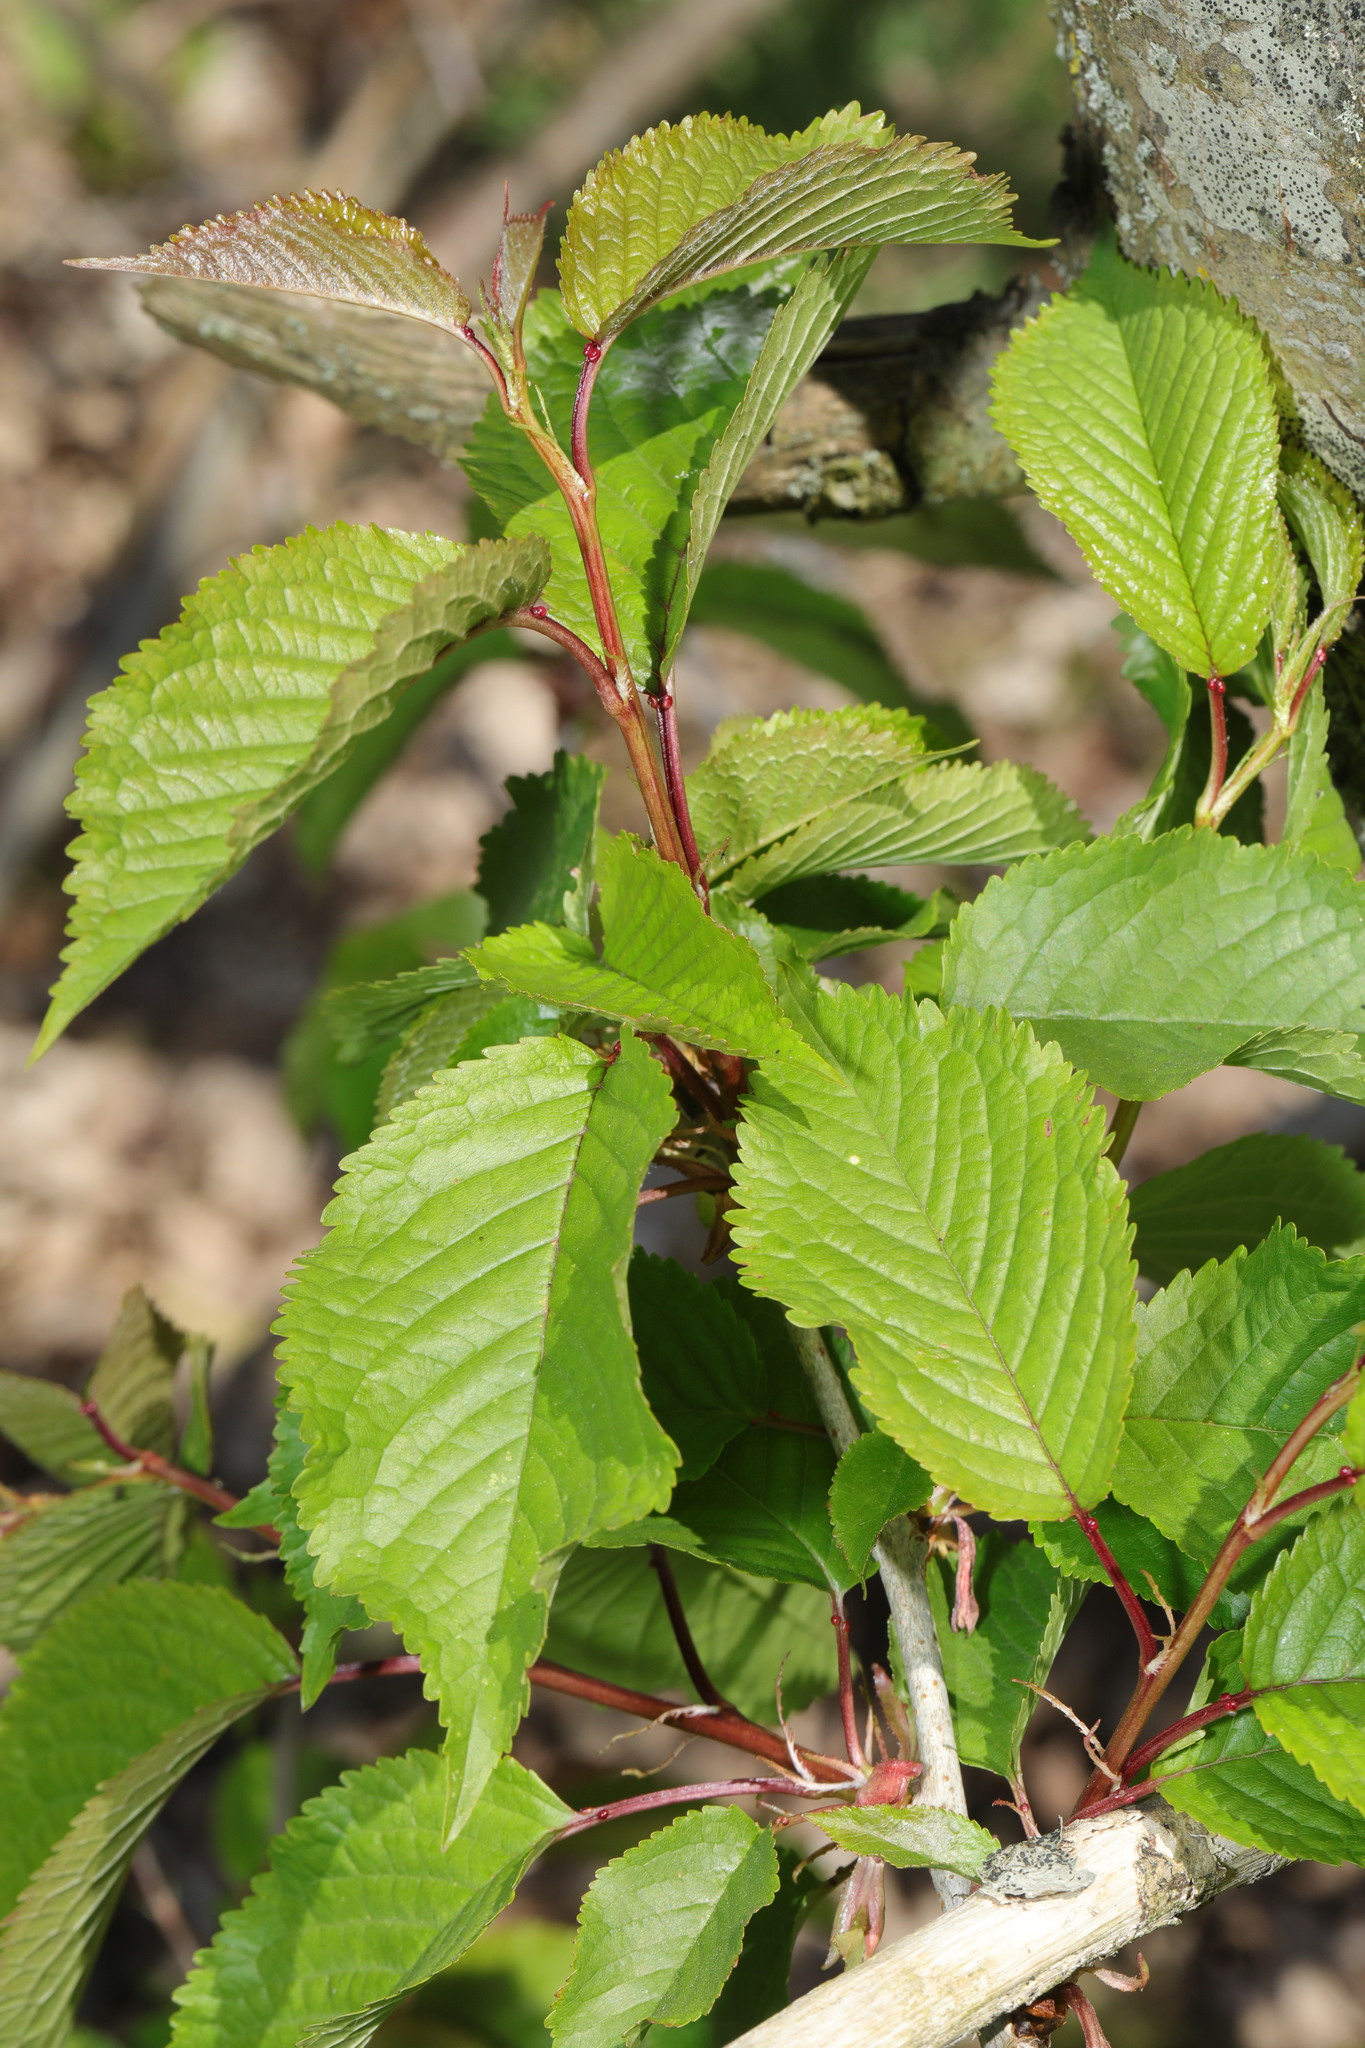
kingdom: Plantae
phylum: Tracheophyta
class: Magnoliopsida
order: Rosales
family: Rosaceae
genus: Prunus
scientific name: Prunus avium
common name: Sweet cherry
